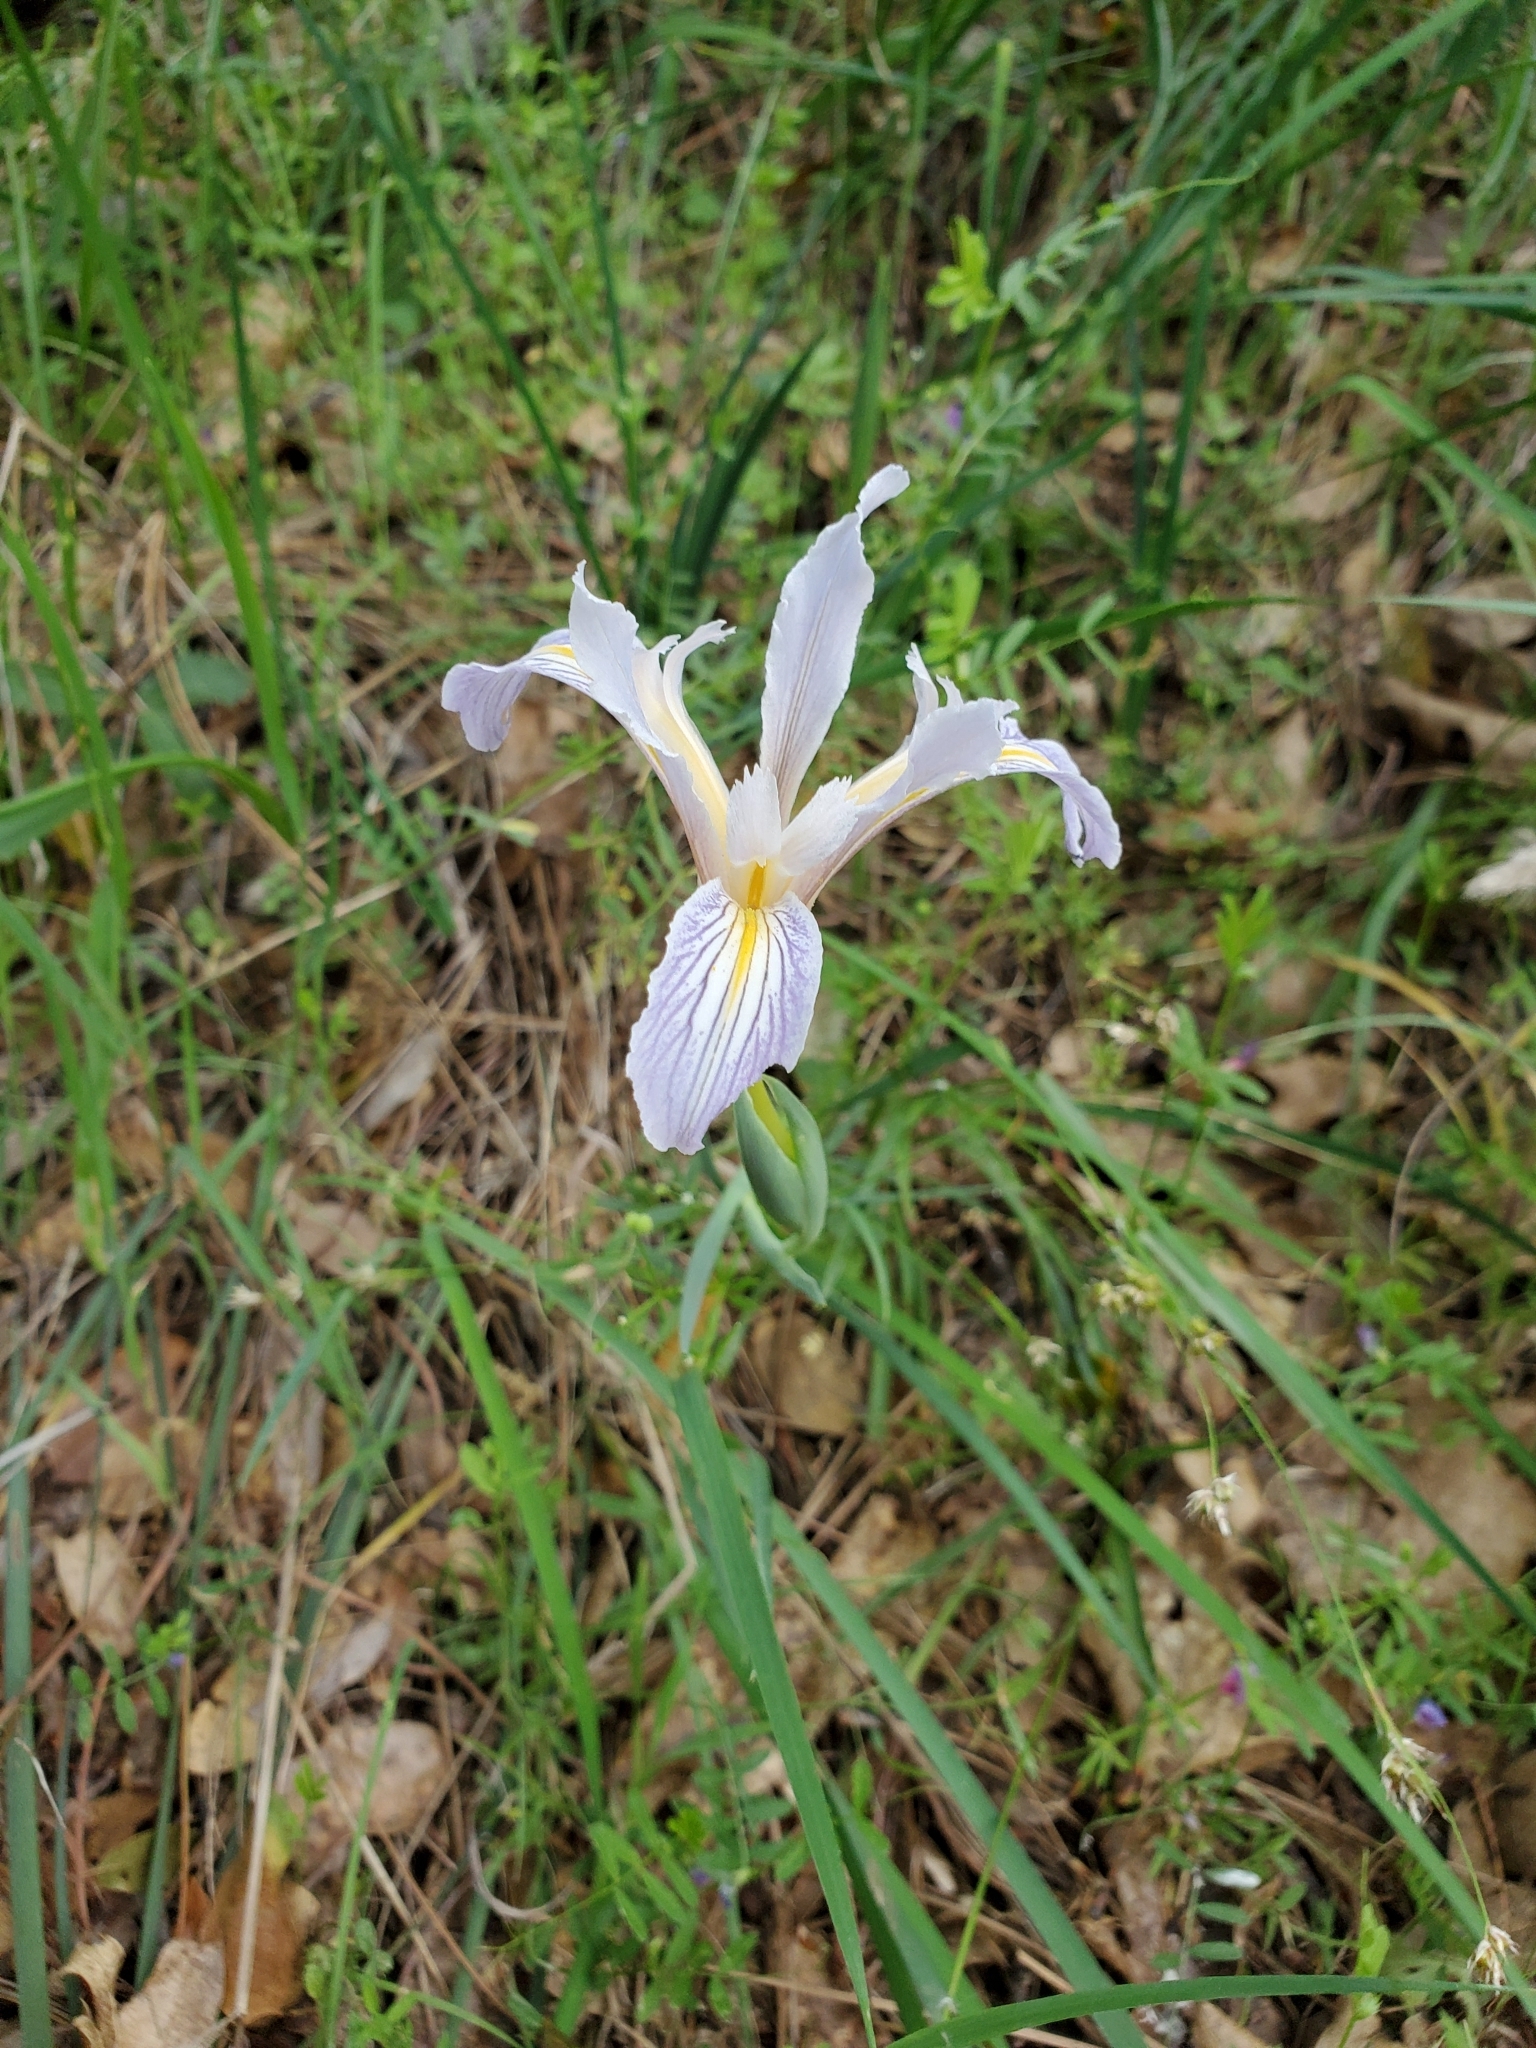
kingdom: Plantae
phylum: Tracheophyta
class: Liliopsida
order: Asparagales
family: Iridaceae
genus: Iris
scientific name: Iris macrosiphon
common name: Ground iris
